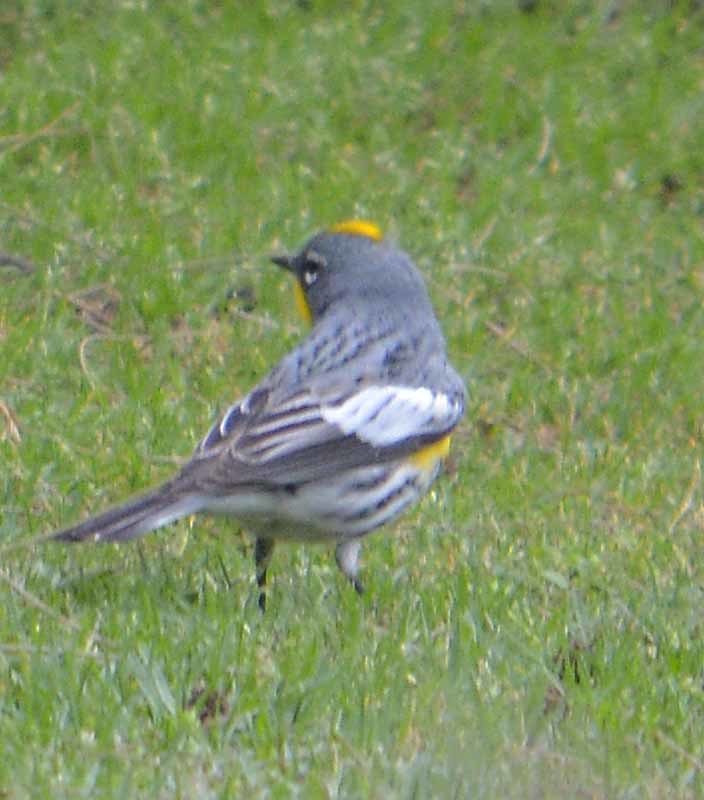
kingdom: Animalia
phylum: Chordata
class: Aves
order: Passeriformes
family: Parulidae
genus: Setophaga
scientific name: Setophaga coronata
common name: Myrtle warbler
